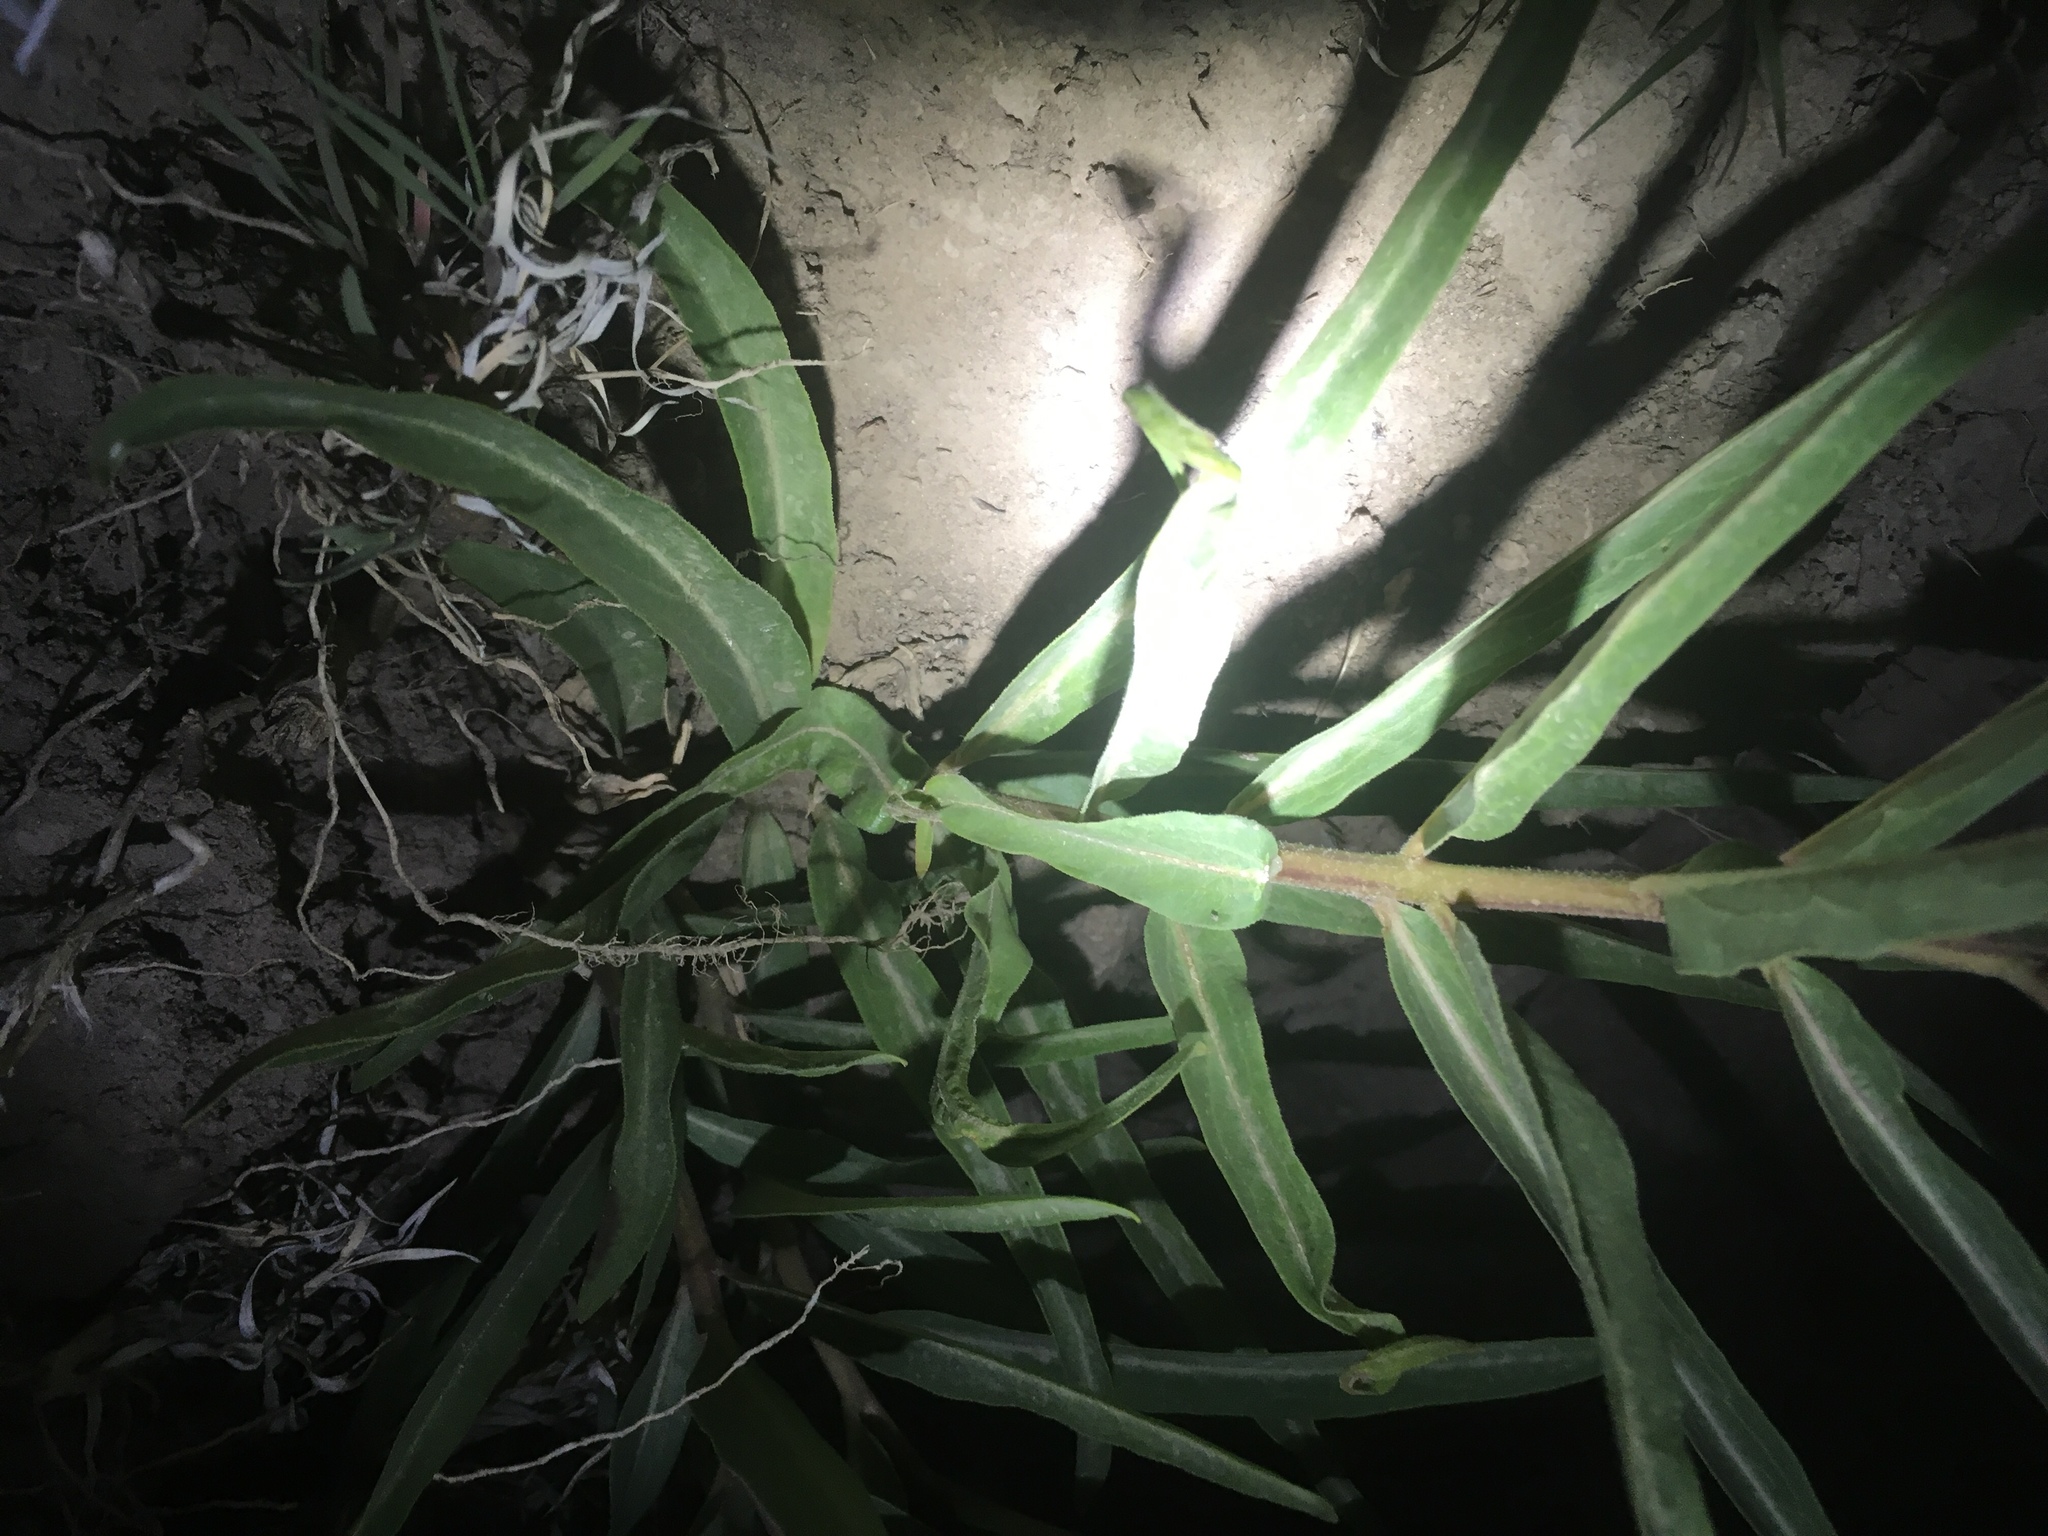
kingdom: Plantae
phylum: Tracheophyta
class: Magnoliopsida
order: Gentianales
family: Apocynaceae
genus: Asclepias
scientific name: Asclepias asperula
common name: Antelope horns
